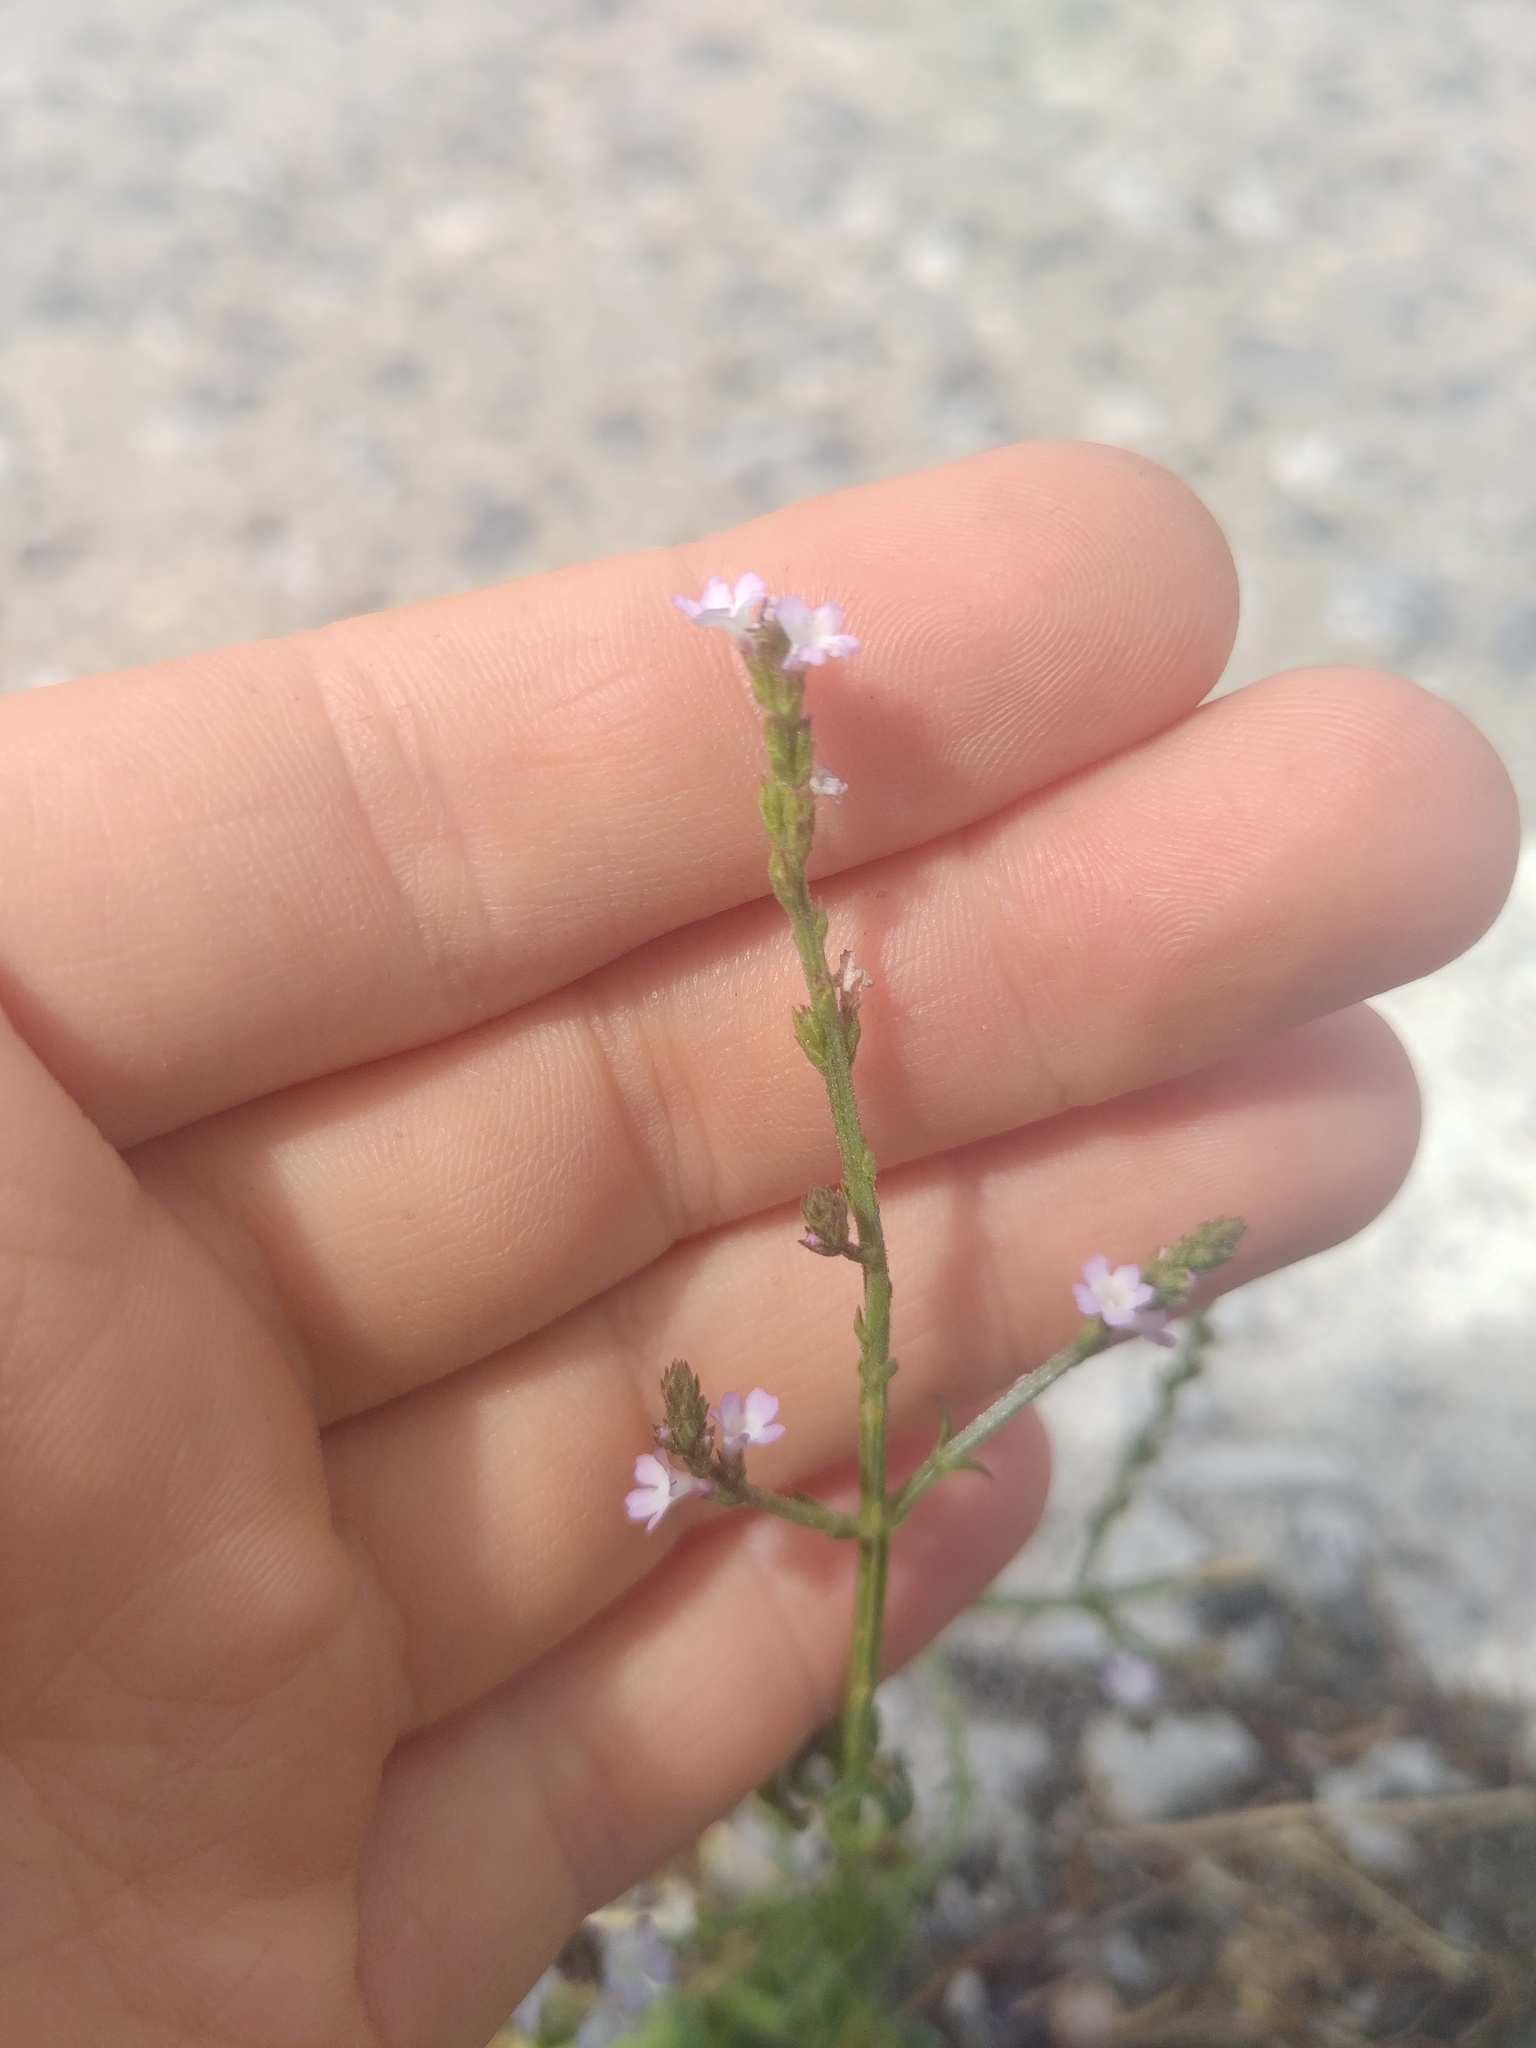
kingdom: Plantae
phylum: Tracheophyta
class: Magnoliopsida
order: Lamiales
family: Verbenaceae
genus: Verbena
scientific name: Verbena officinalis
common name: Vervain
